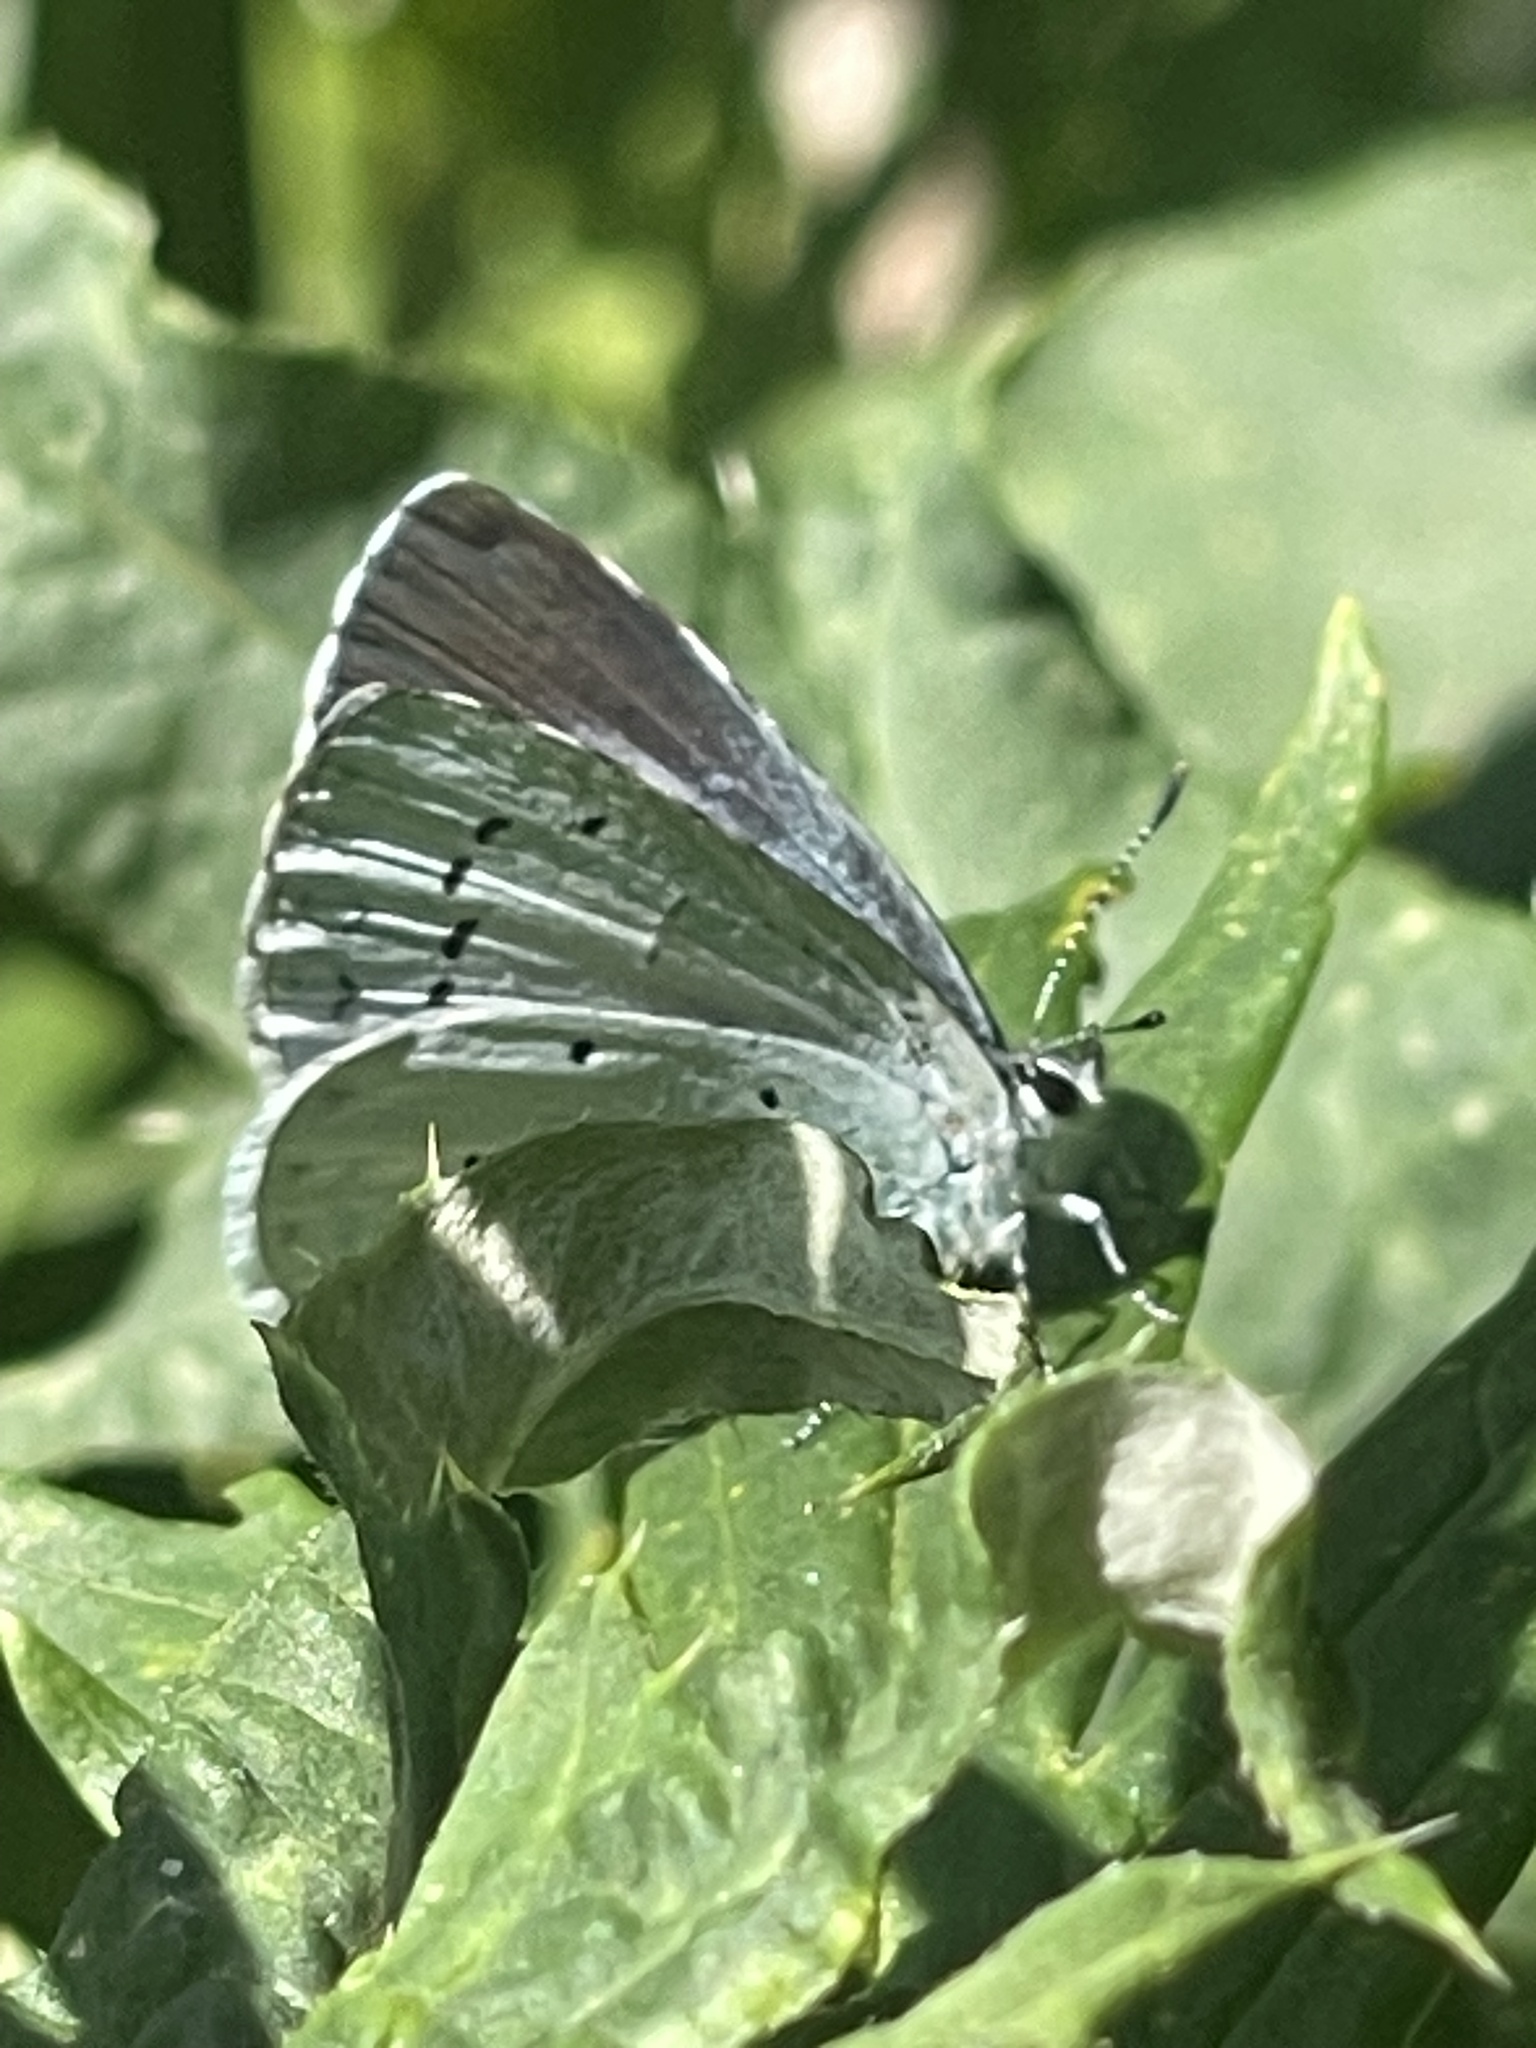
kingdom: Animalia
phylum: Arthropoda
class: Insecta
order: Lepidoptera
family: Lycaenidae
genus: Celastrina
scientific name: Celastrina argiolus
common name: Holly blue
